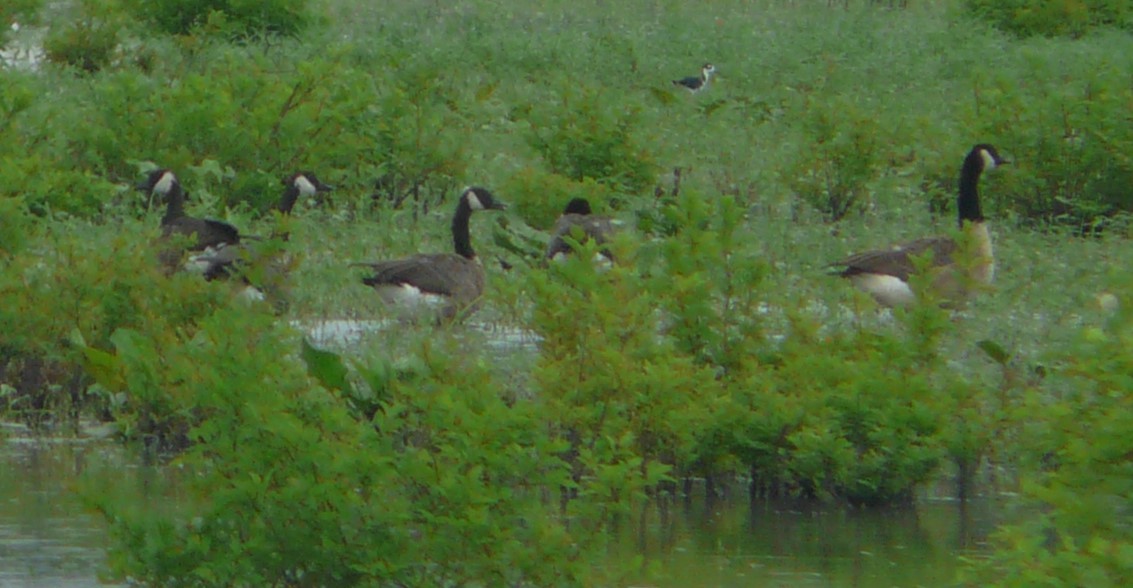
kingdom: Animalia
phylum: Chordata
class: Aves
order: Anseriformes
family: Anatidae
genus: Branta
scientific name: Branta canadensis
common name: Canada goose
